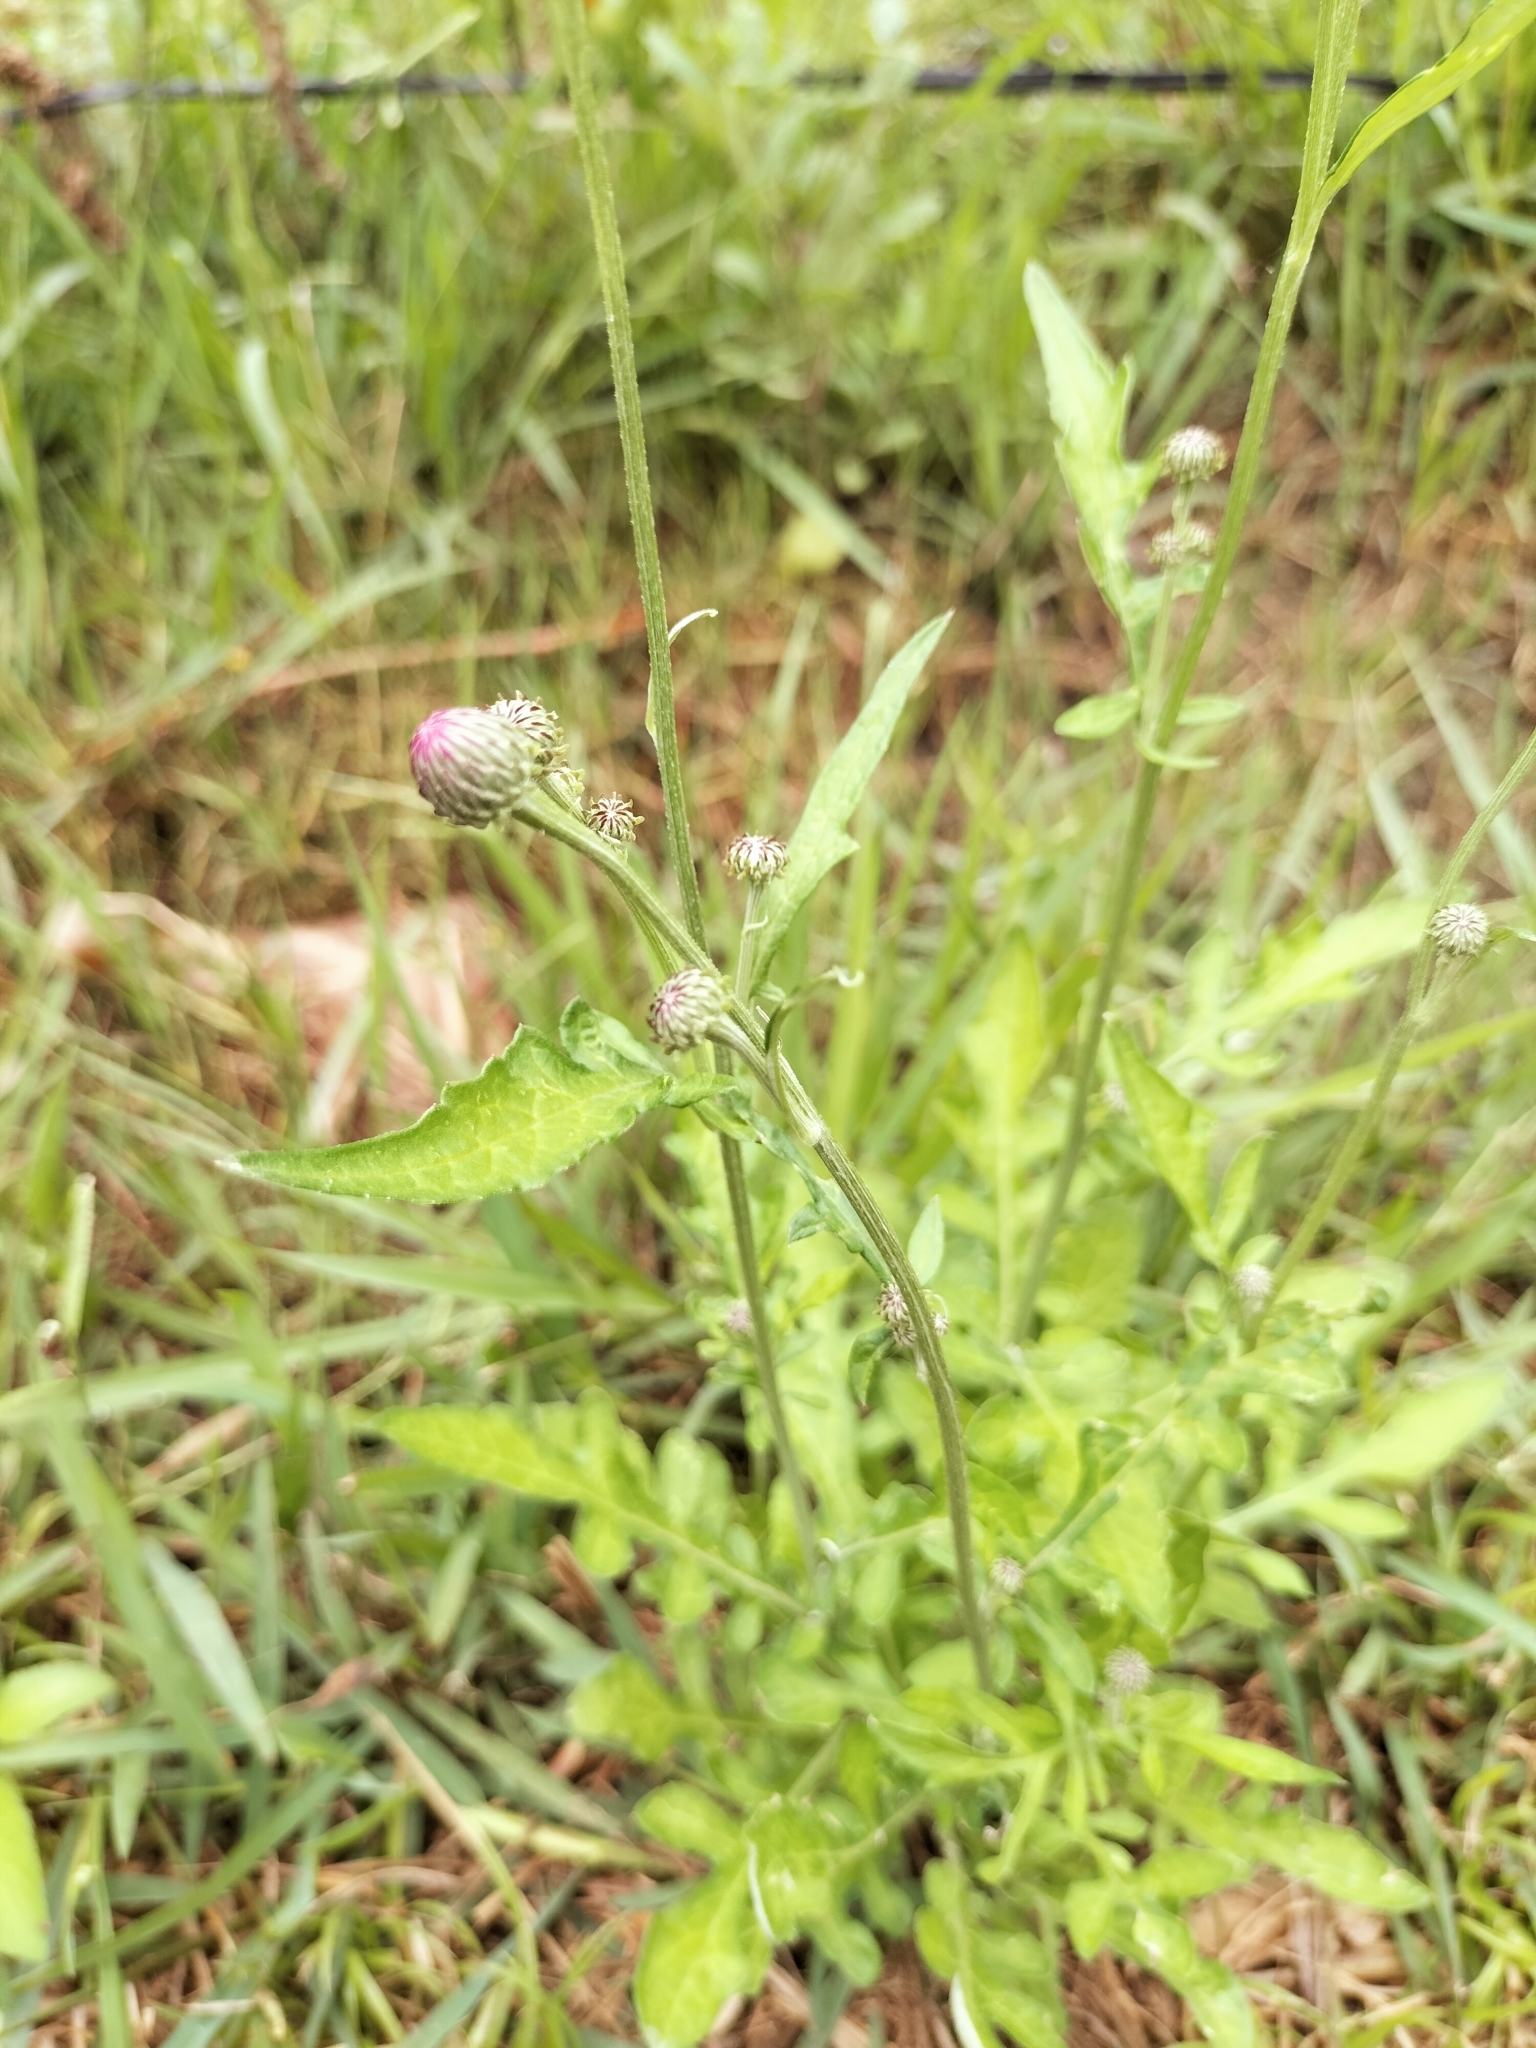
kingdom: Plantae
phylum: Tracheophyta
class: Magnoliopsida
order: Asterales
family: Asteraceae
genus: Saussurea
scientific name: Saussurea lyrata
